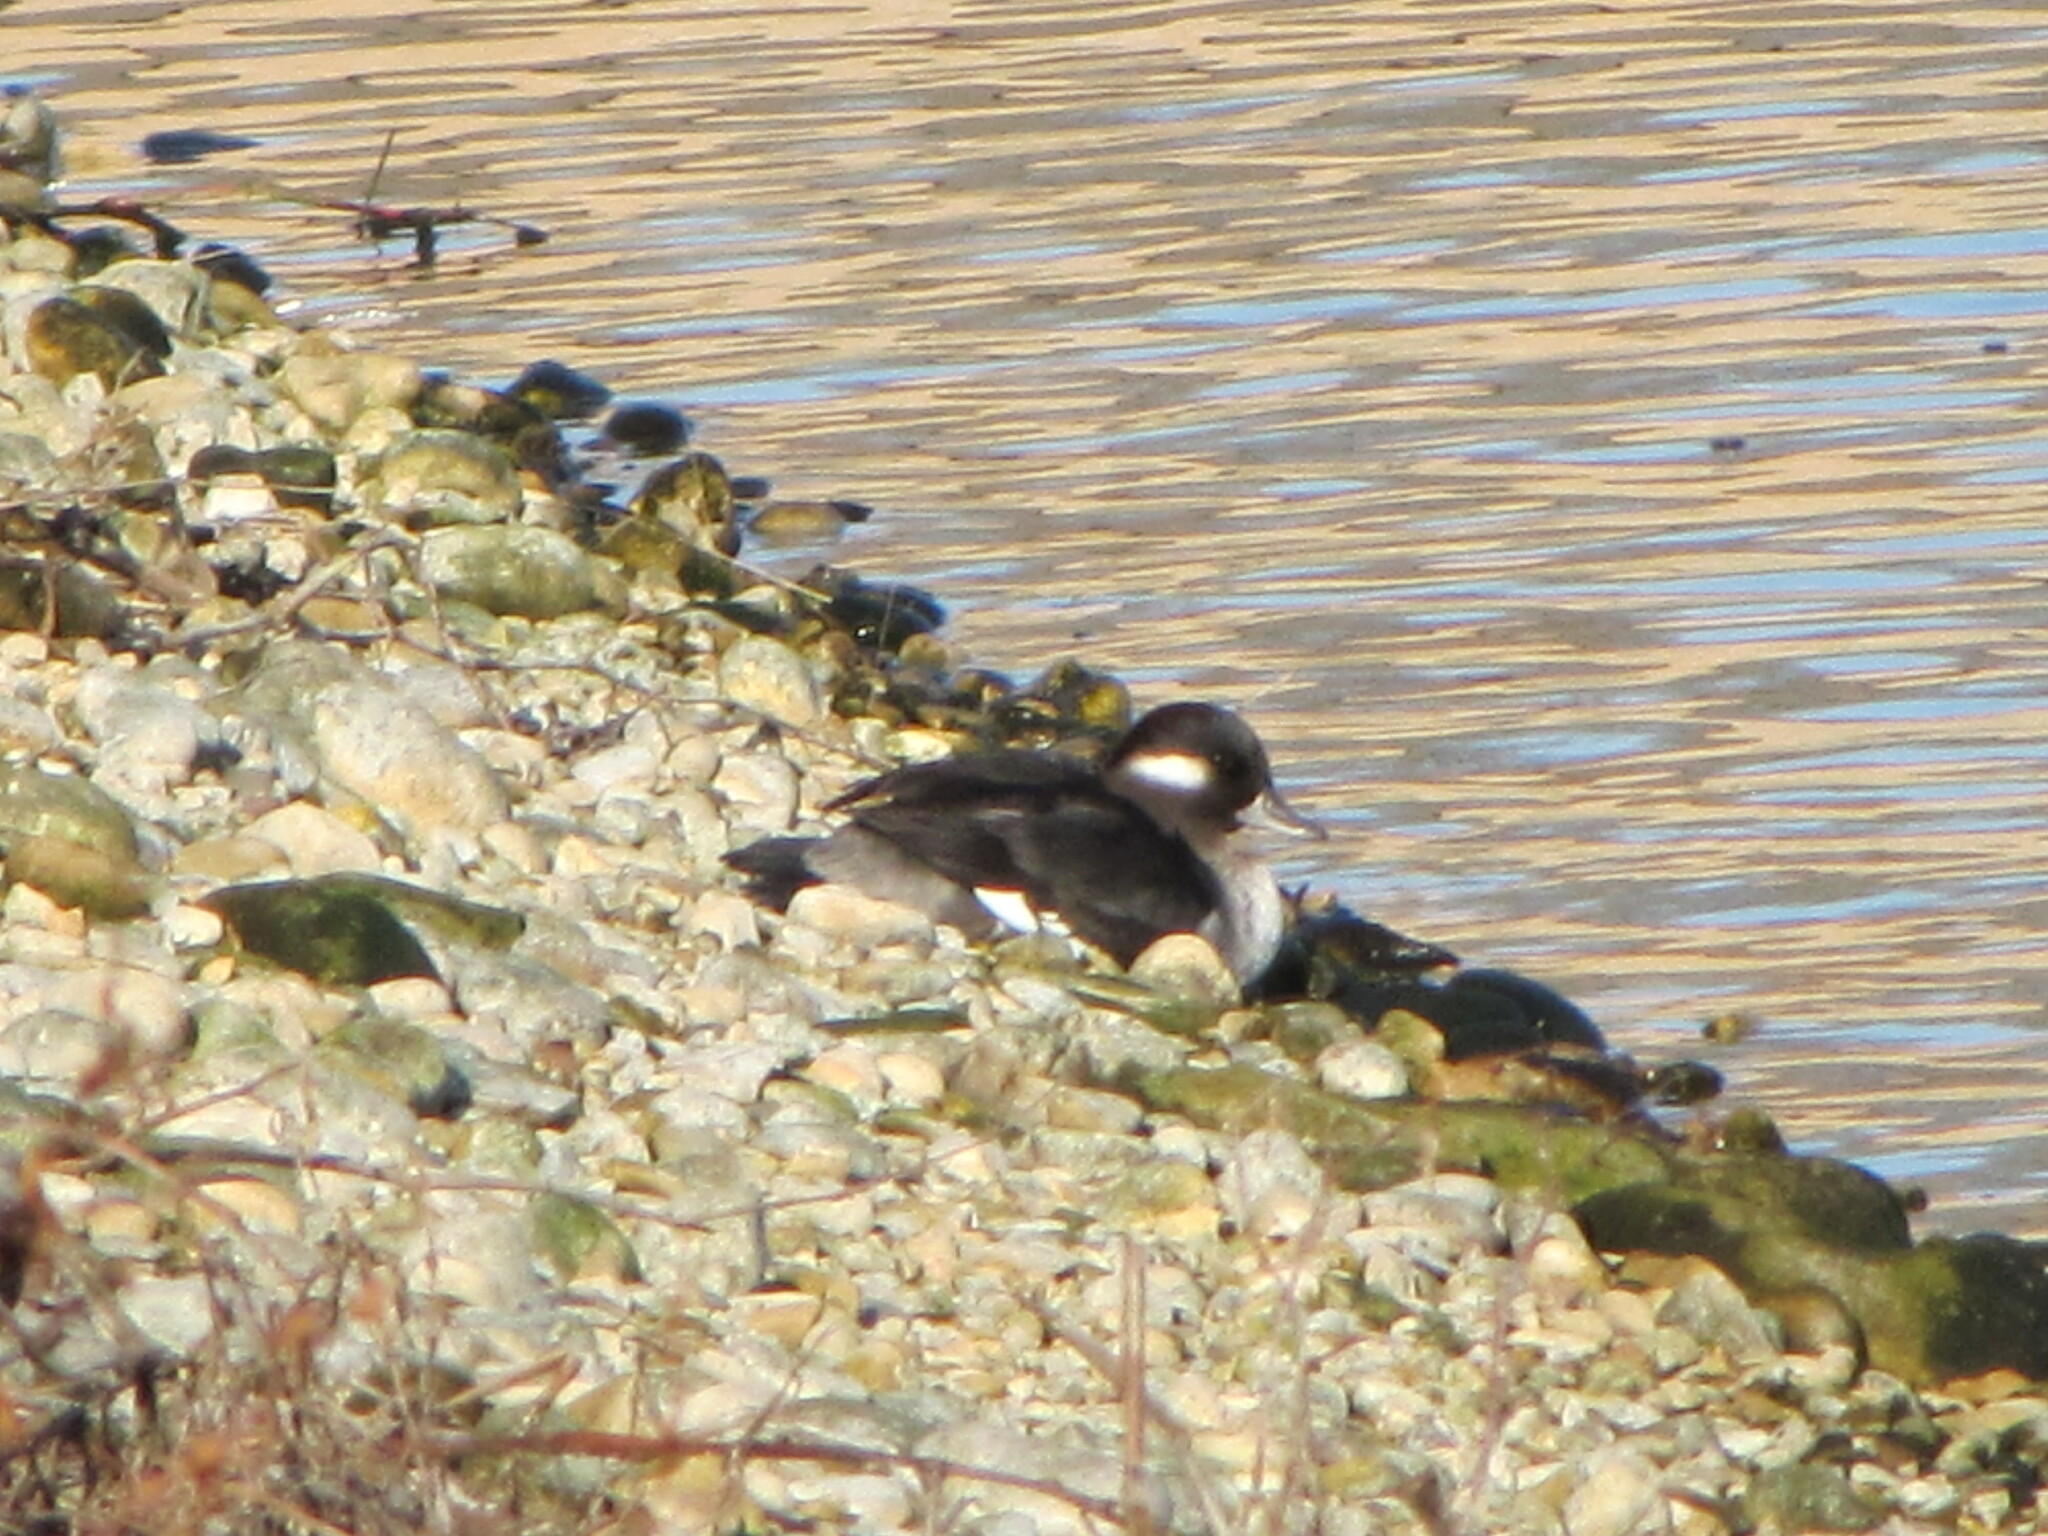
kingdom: Animalia
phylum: Chordata
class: Aves
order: Anseriformes
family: Anatidae
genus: Bucephala
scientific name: Bucephala albeola
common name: Bufflehead
